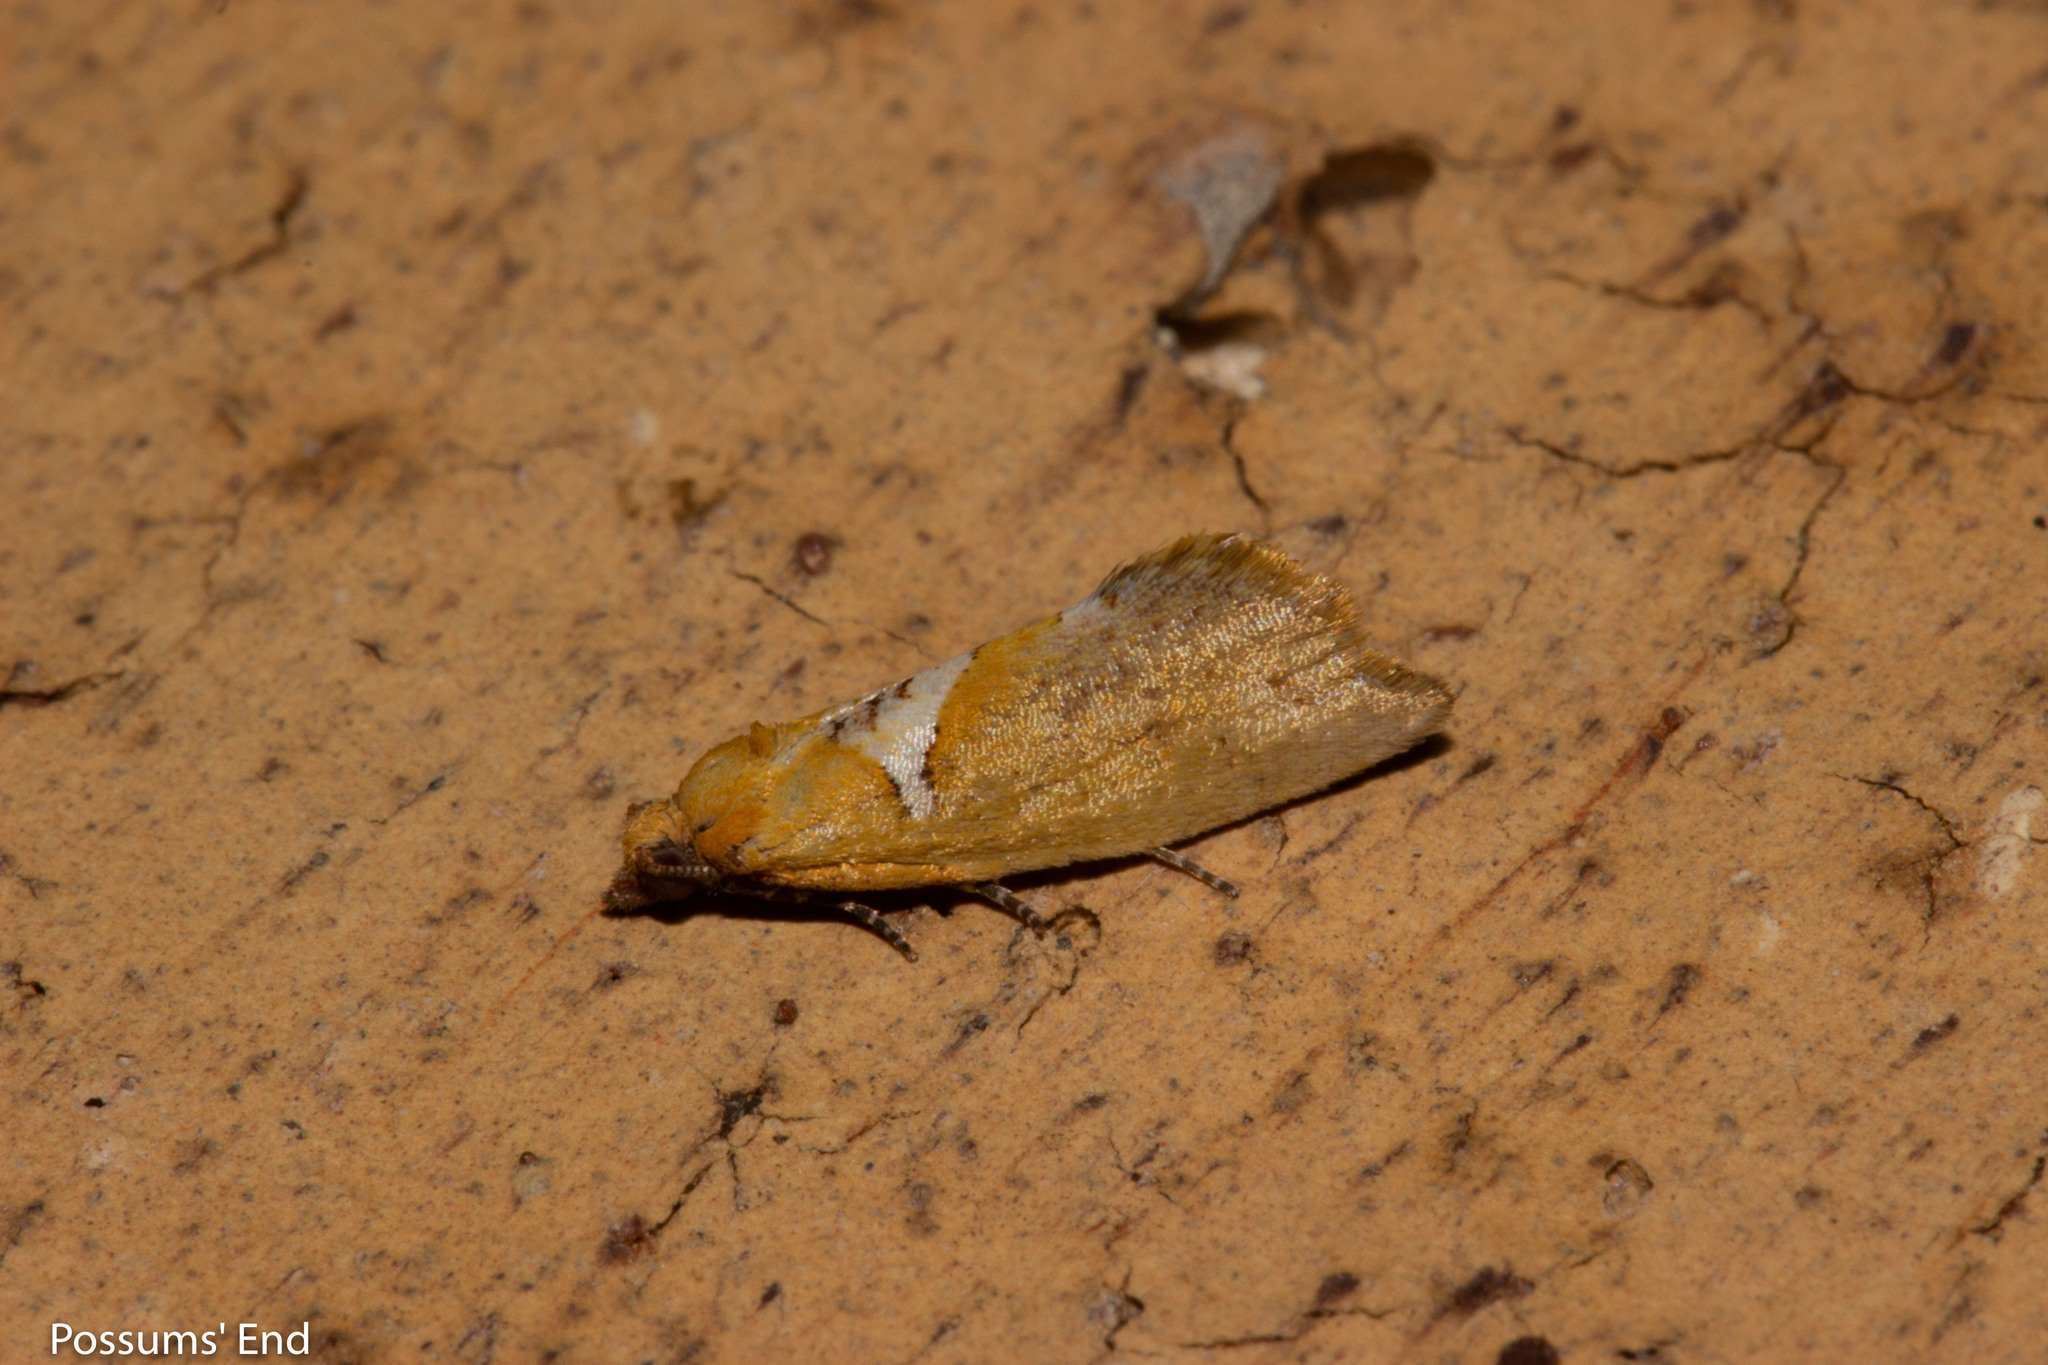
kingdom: Animalia
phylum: Arthropoda
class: Insecta
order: Lepidoptera
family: Tortricidae
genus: Pyrgotis
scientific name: Pyrgotis pyramidias
